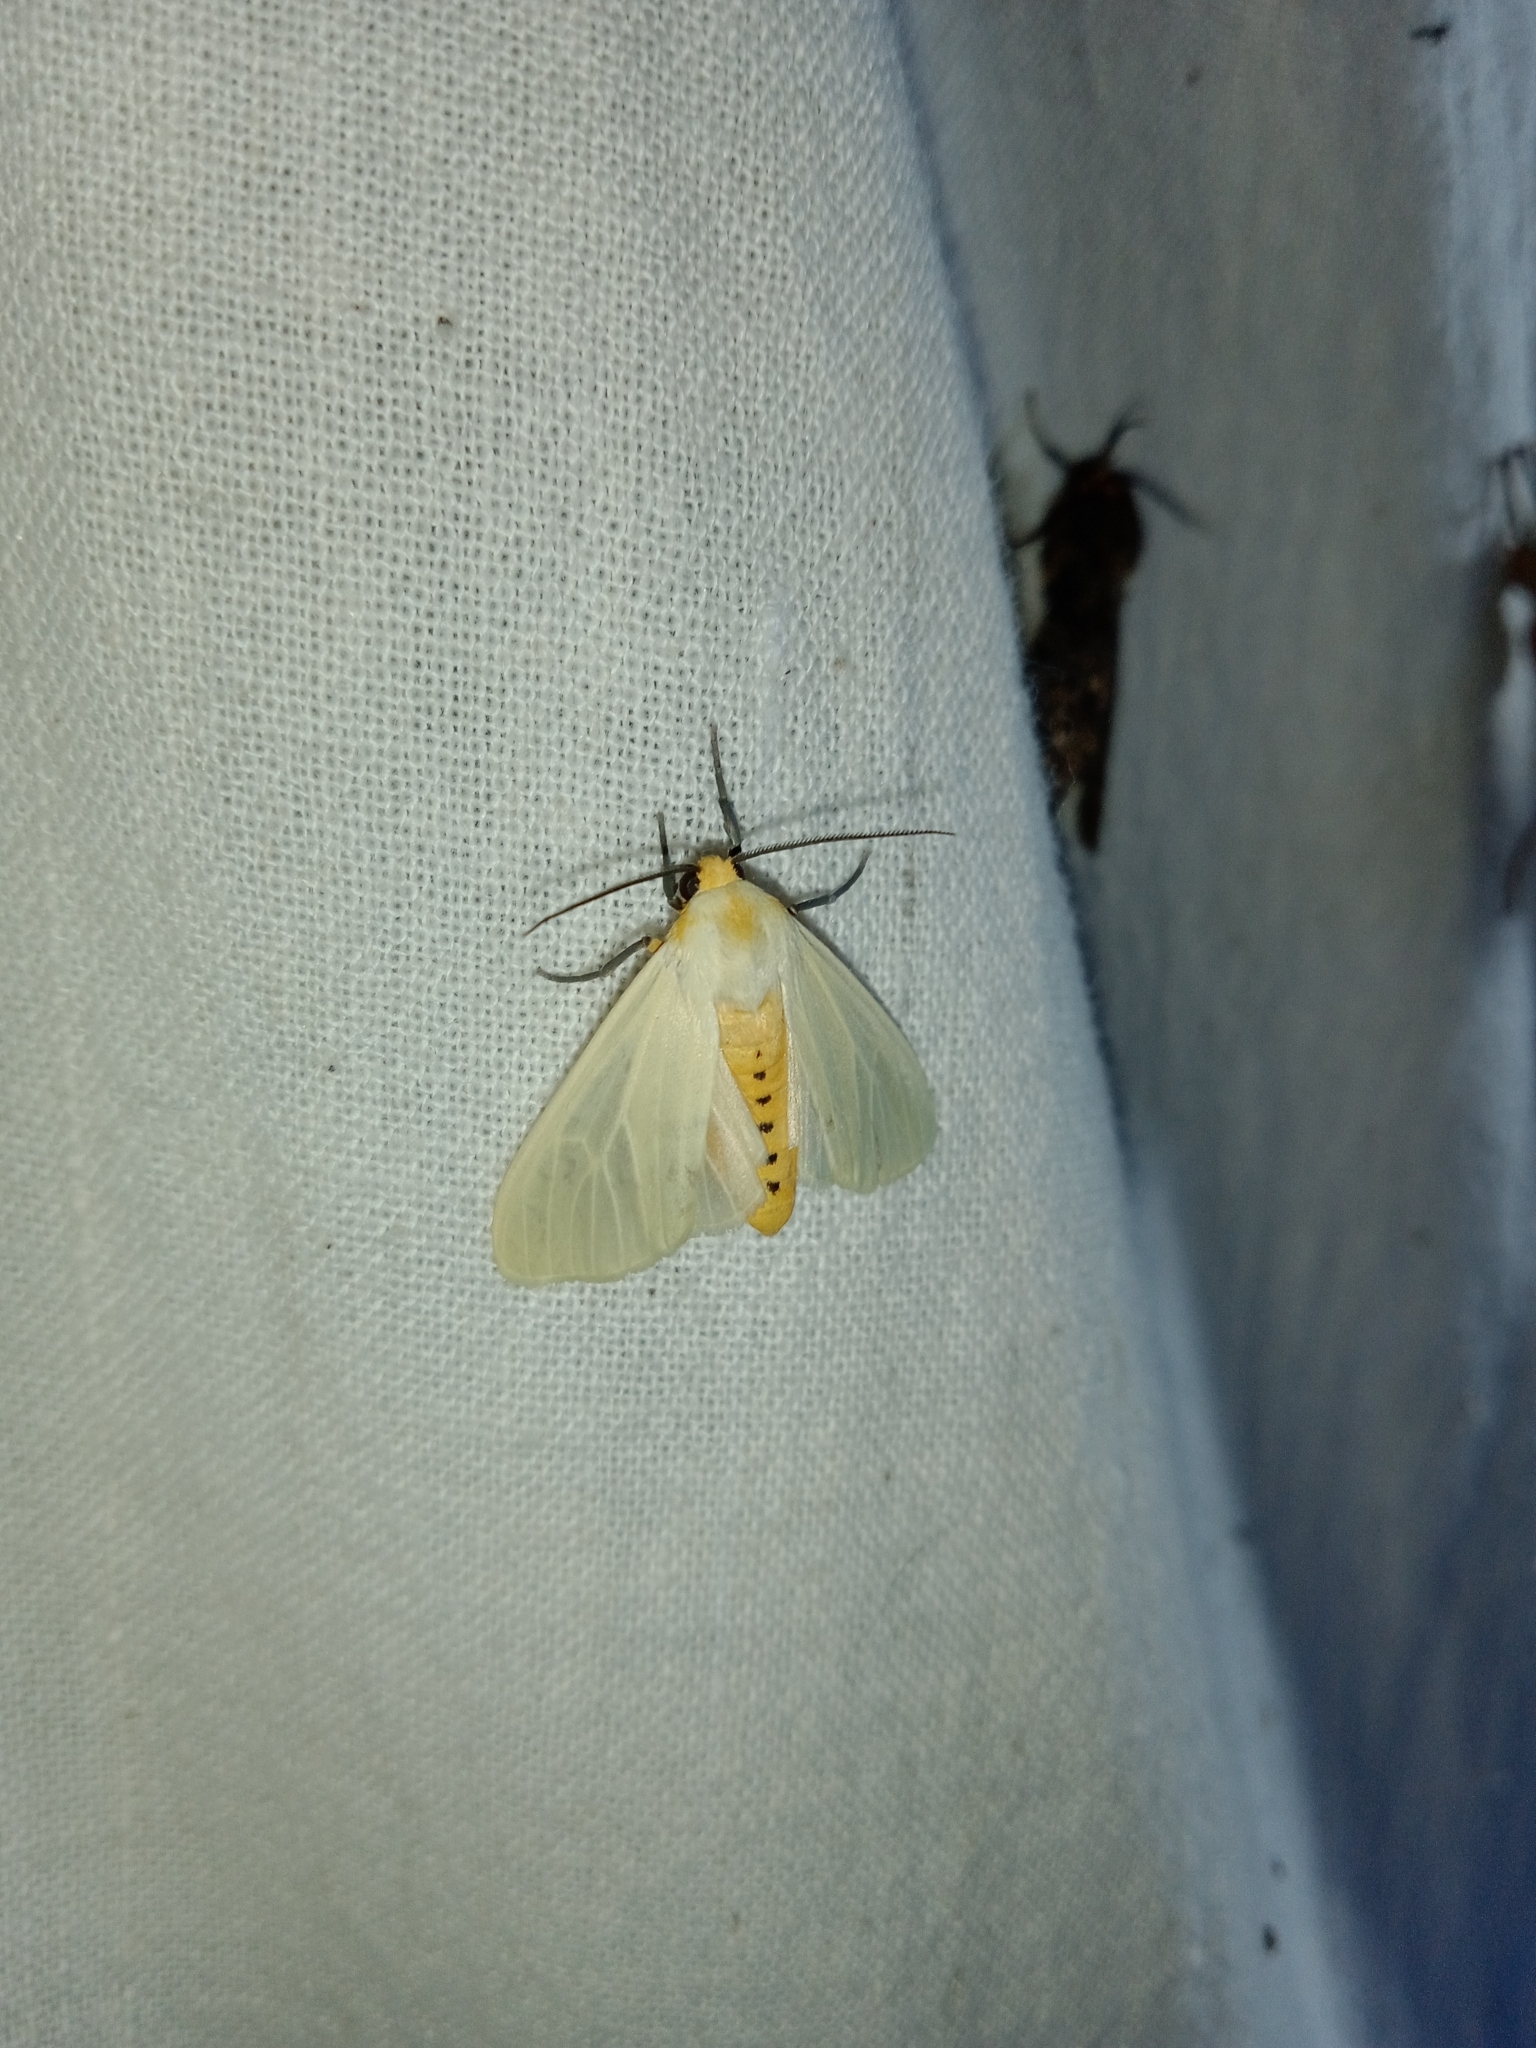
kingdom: Animalia
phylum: Arthropoda
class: Insecta
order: Lepidoptera
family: Erebidae
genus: Pareuchaetes
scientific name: Pareuchaetes pseudoinsulata
